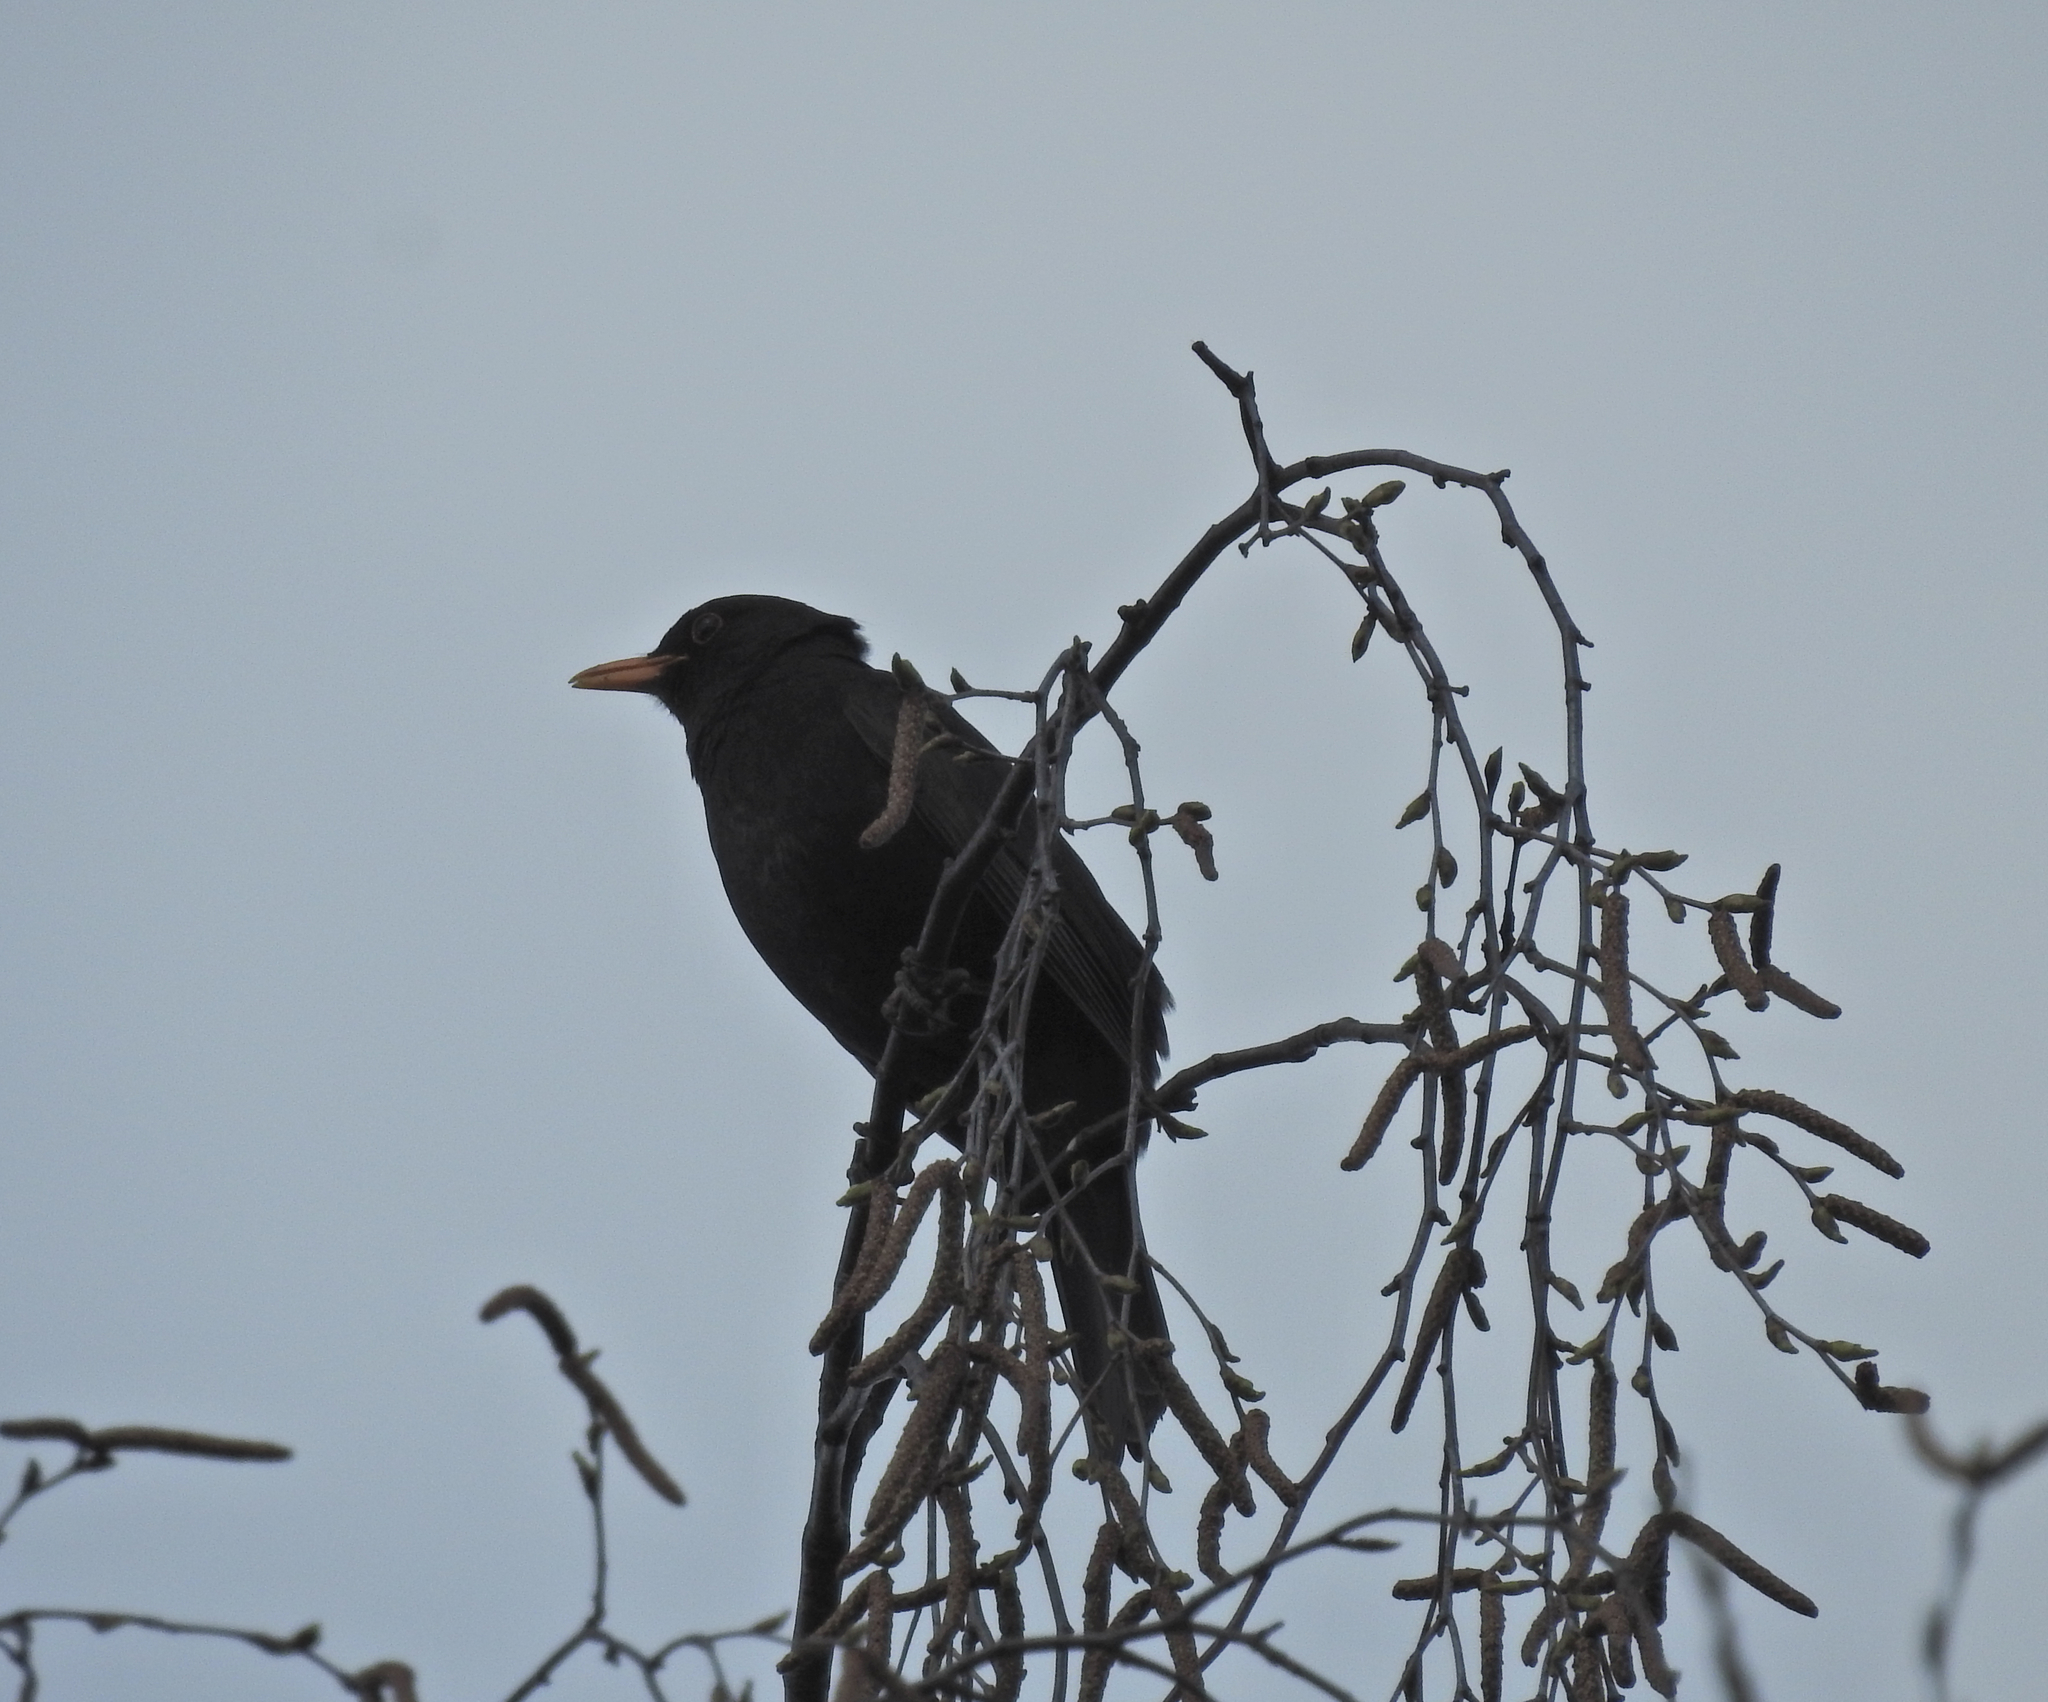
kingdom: Animalia
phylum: Chordata
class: Aves
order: Passeriformes
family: Turdidae
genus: Turdus
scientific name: Turdus merula
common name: Common blackbird
